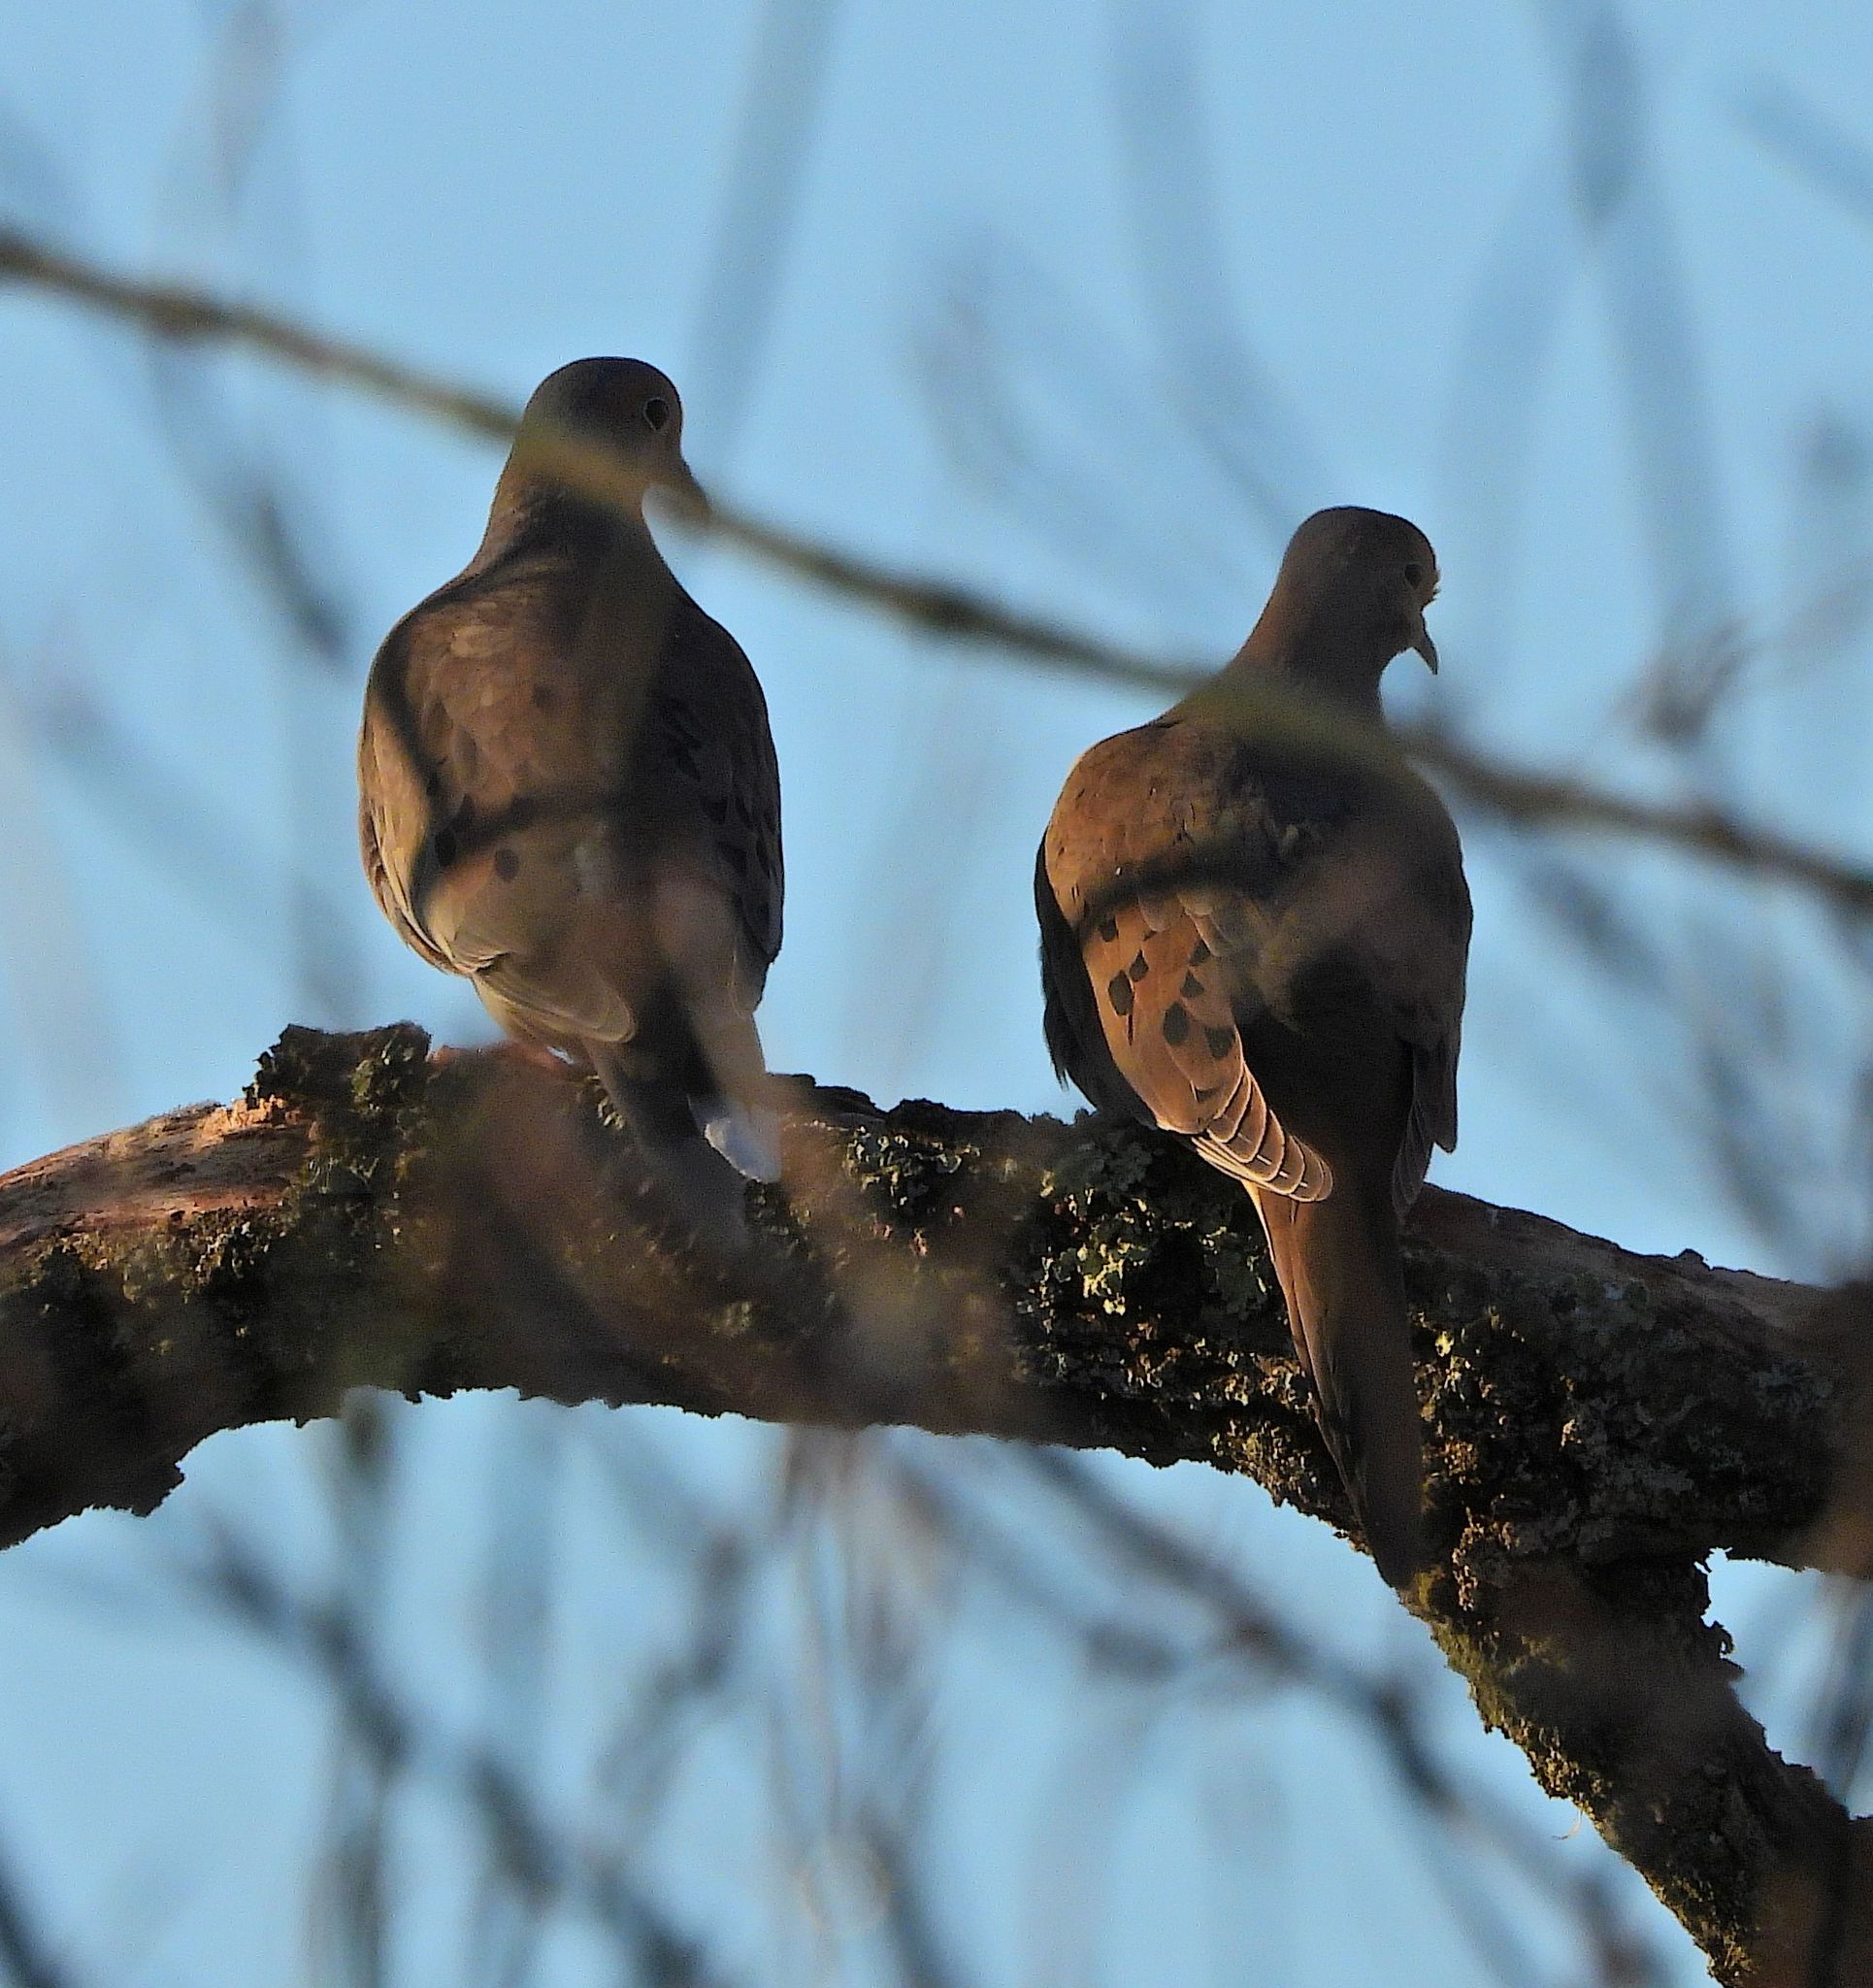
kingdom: Animalia
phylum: Chordata
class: Aves
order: Columbiformes
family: Columbidae
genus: Zenaida
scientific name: Zenaida macroura
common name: Mourning dove
